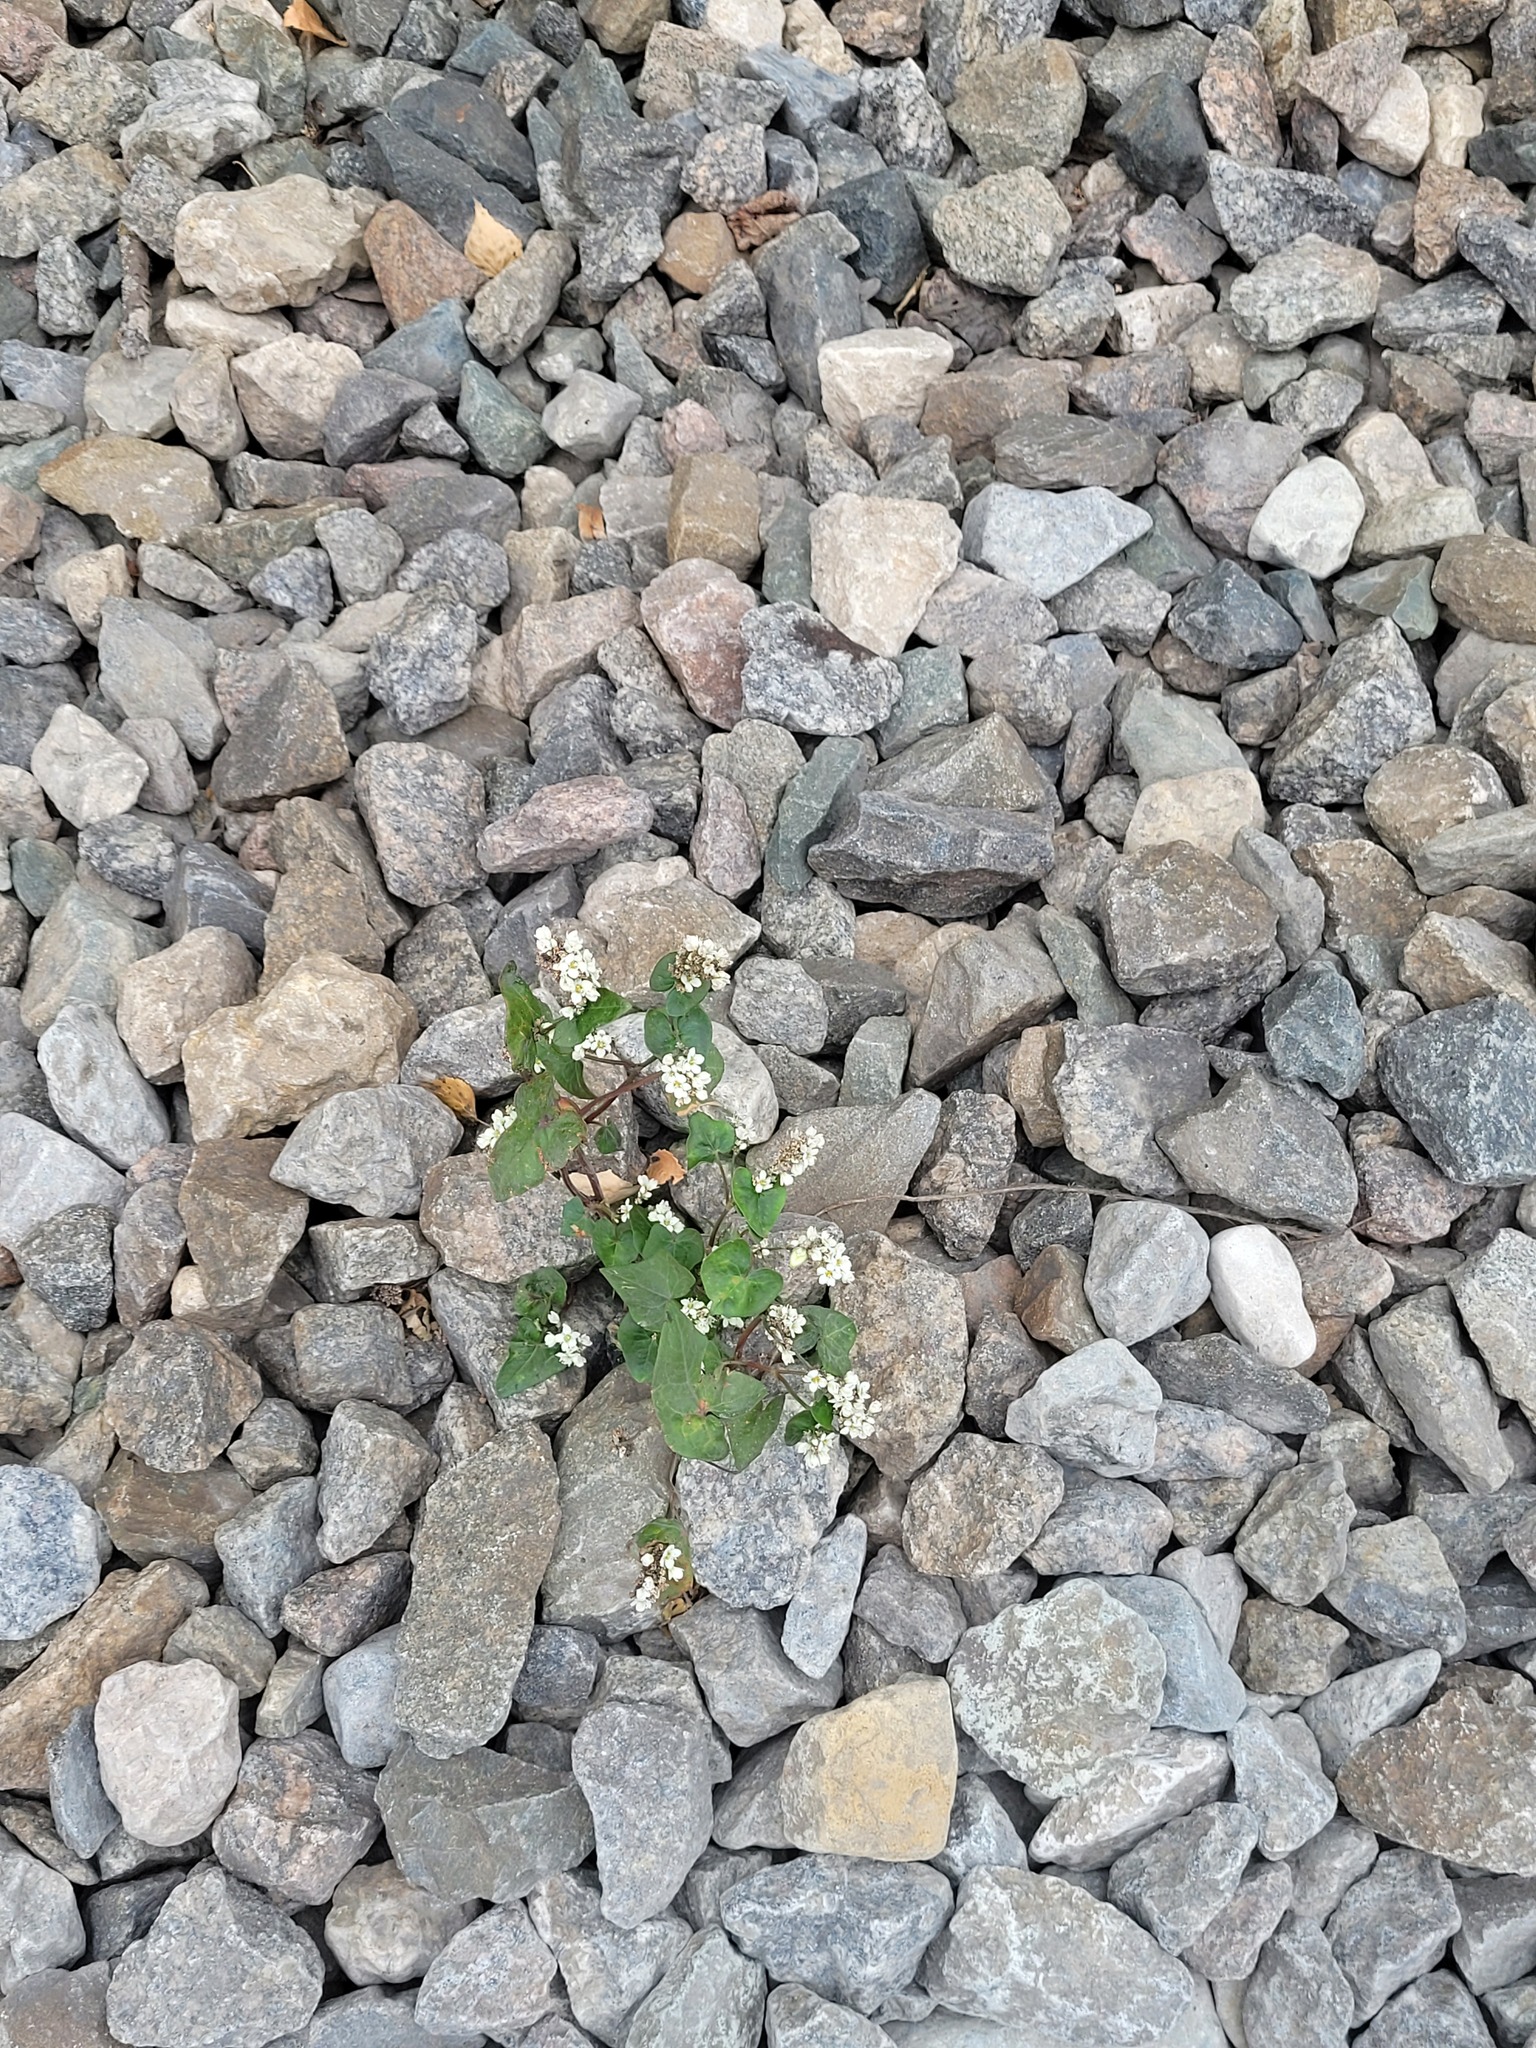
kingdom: Plantae
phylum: Tracheophyta
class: Magnoliopsida
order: Caryophyllales
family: Polygonaceae
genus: Fagopyrum
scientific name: Fagopyrum esculentum
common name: Buckwheat
